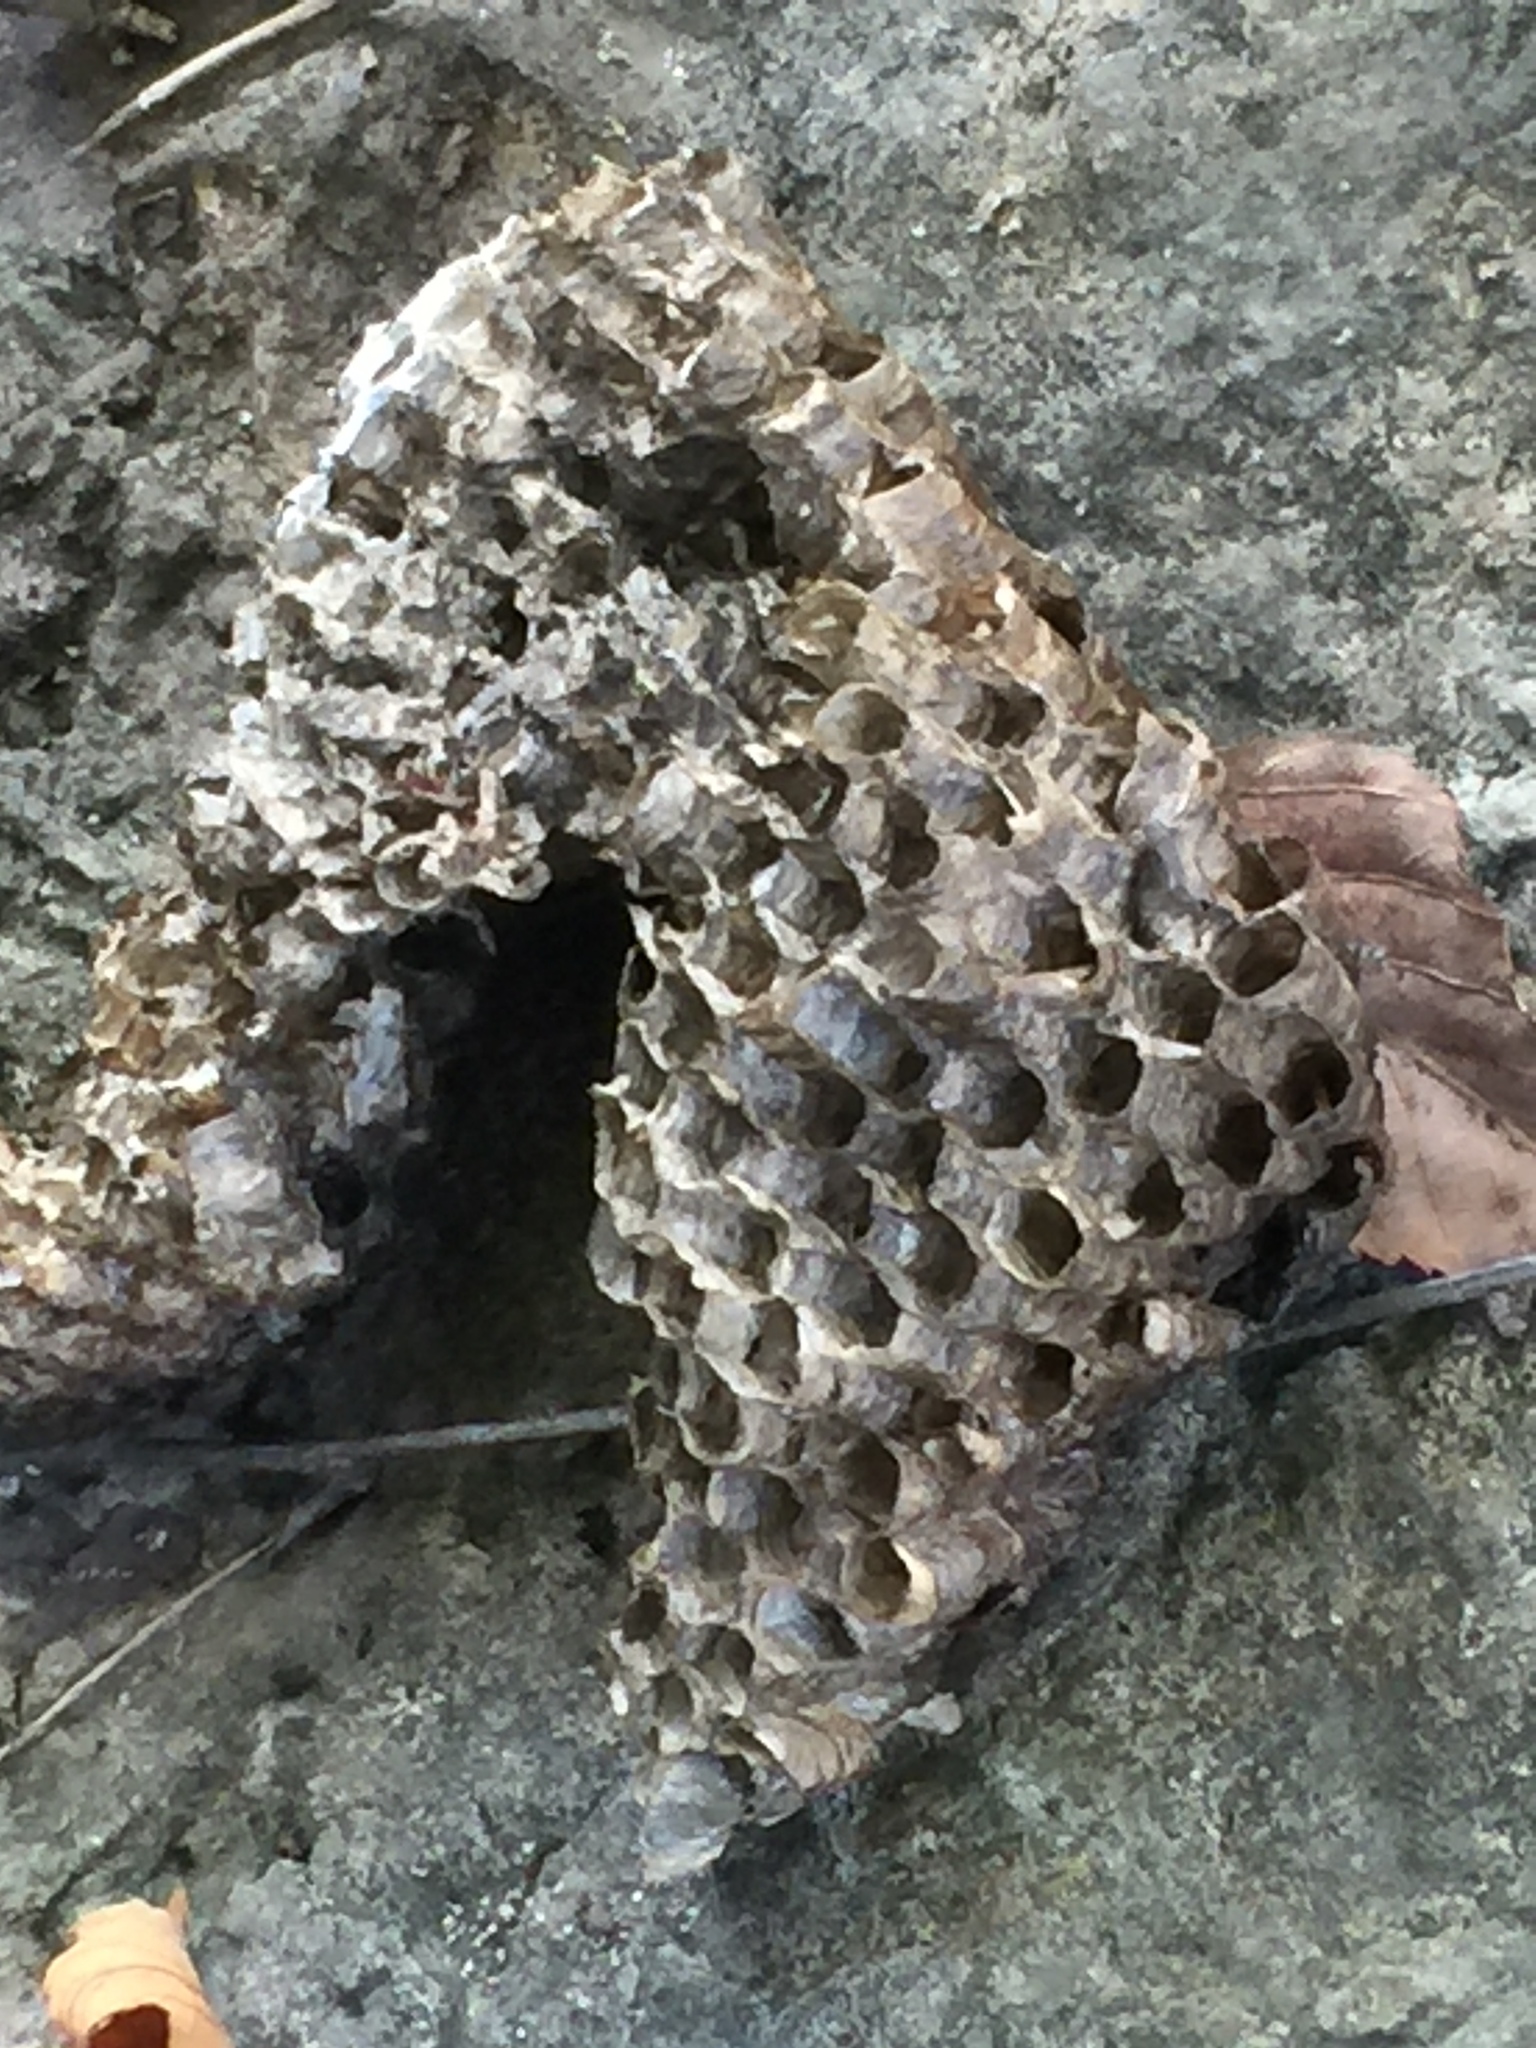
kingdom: Animalia
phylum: Arthropoda
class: Insecta
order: Hymenoptera
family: Eumenidae
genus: Polistes
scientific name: Polistes
